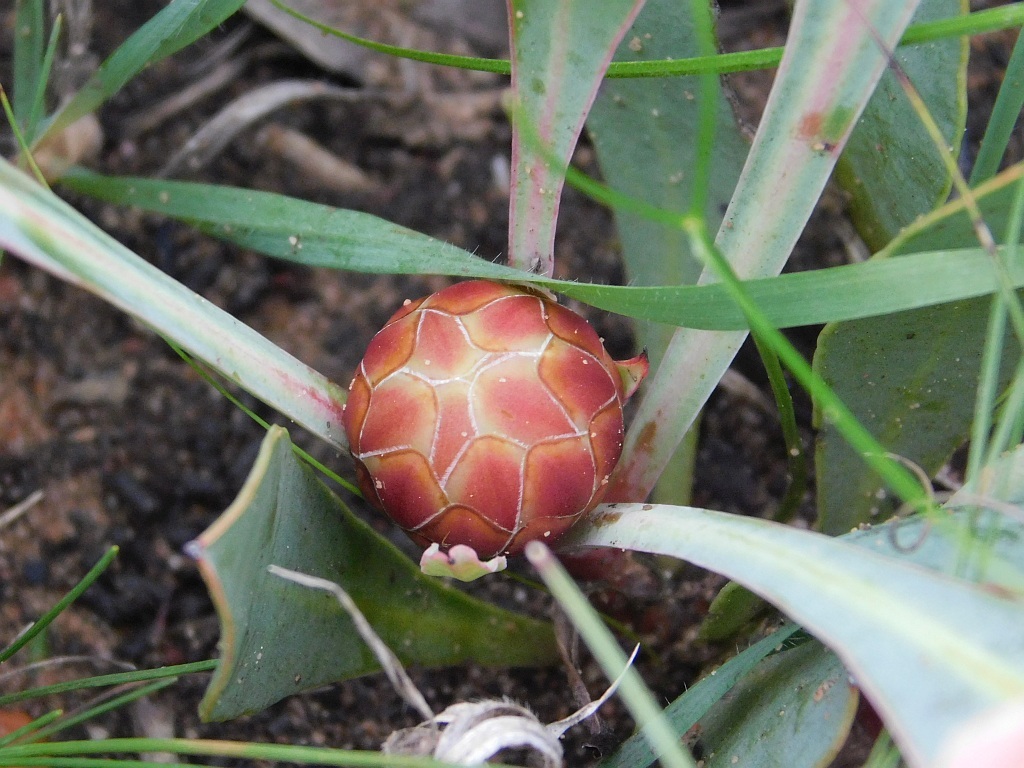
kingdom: Plantae
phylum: Tracheophyta
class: Magnoliopsida
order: Proteales
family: Proteaceae
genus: Protea
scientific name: Protea acaulos
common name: Common ground sugarbush
